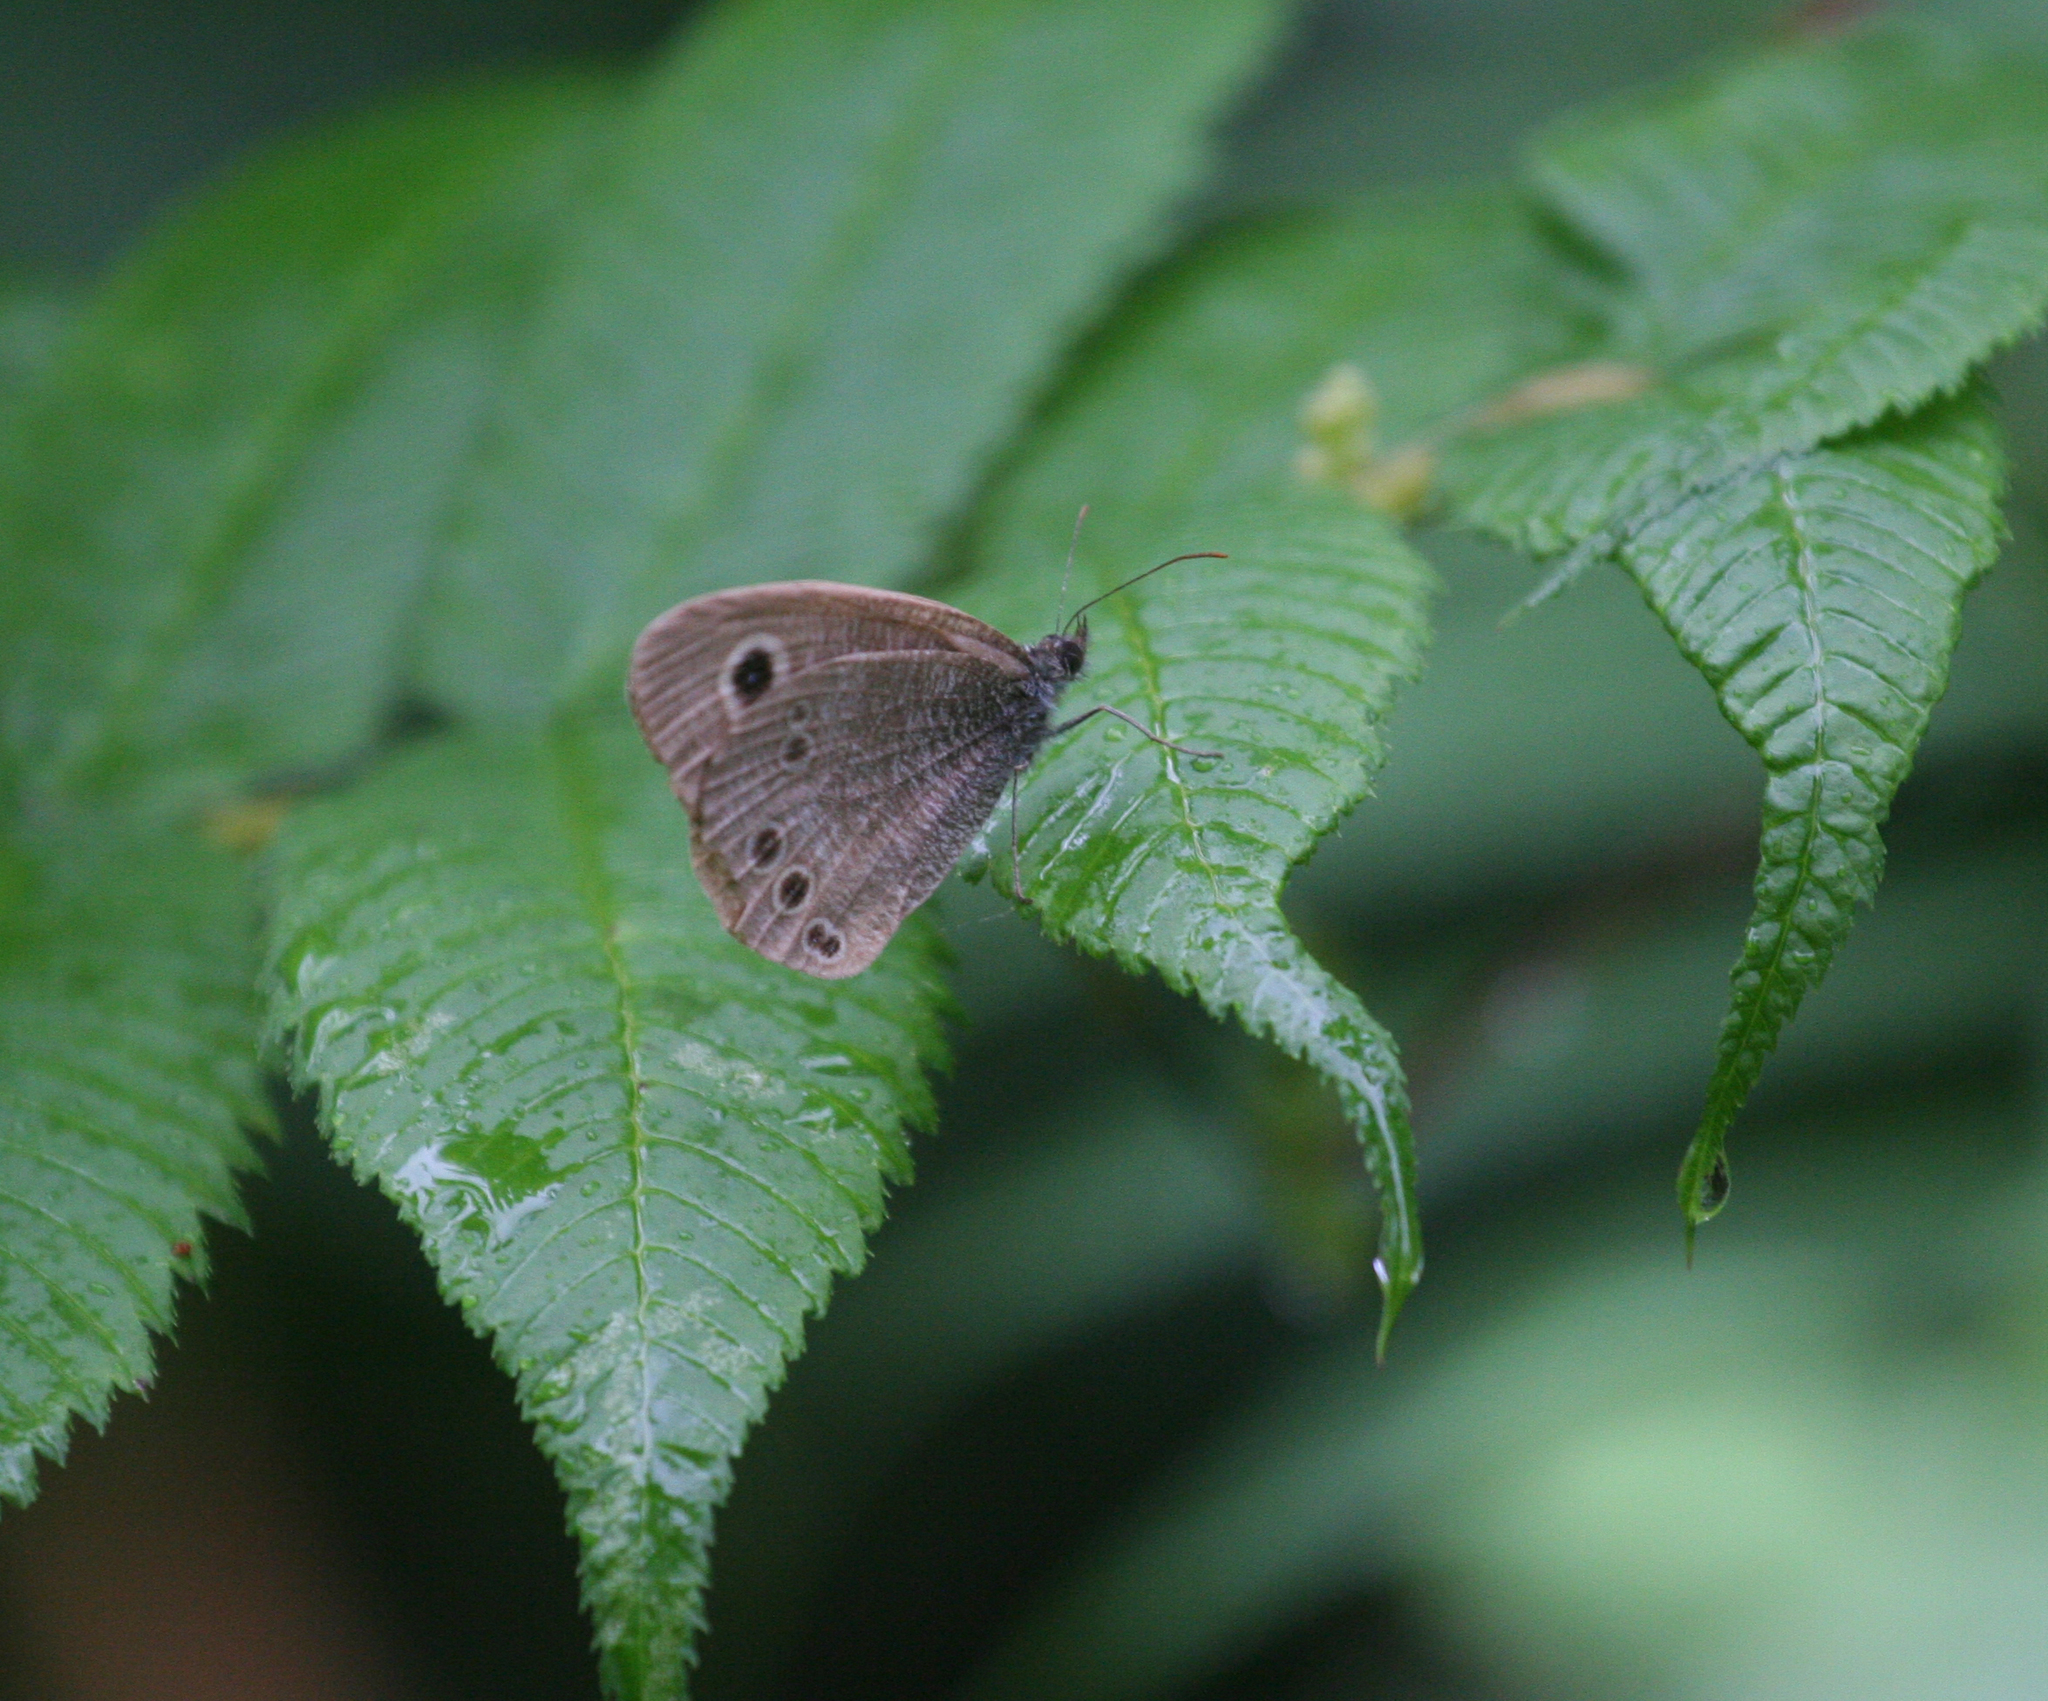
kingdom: Animalia
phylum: Arthropoda
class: Insecta
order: Lepidoptera
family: Nymphalidae
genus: Ypthima
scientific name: Ypthima argus
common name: Common fivering
